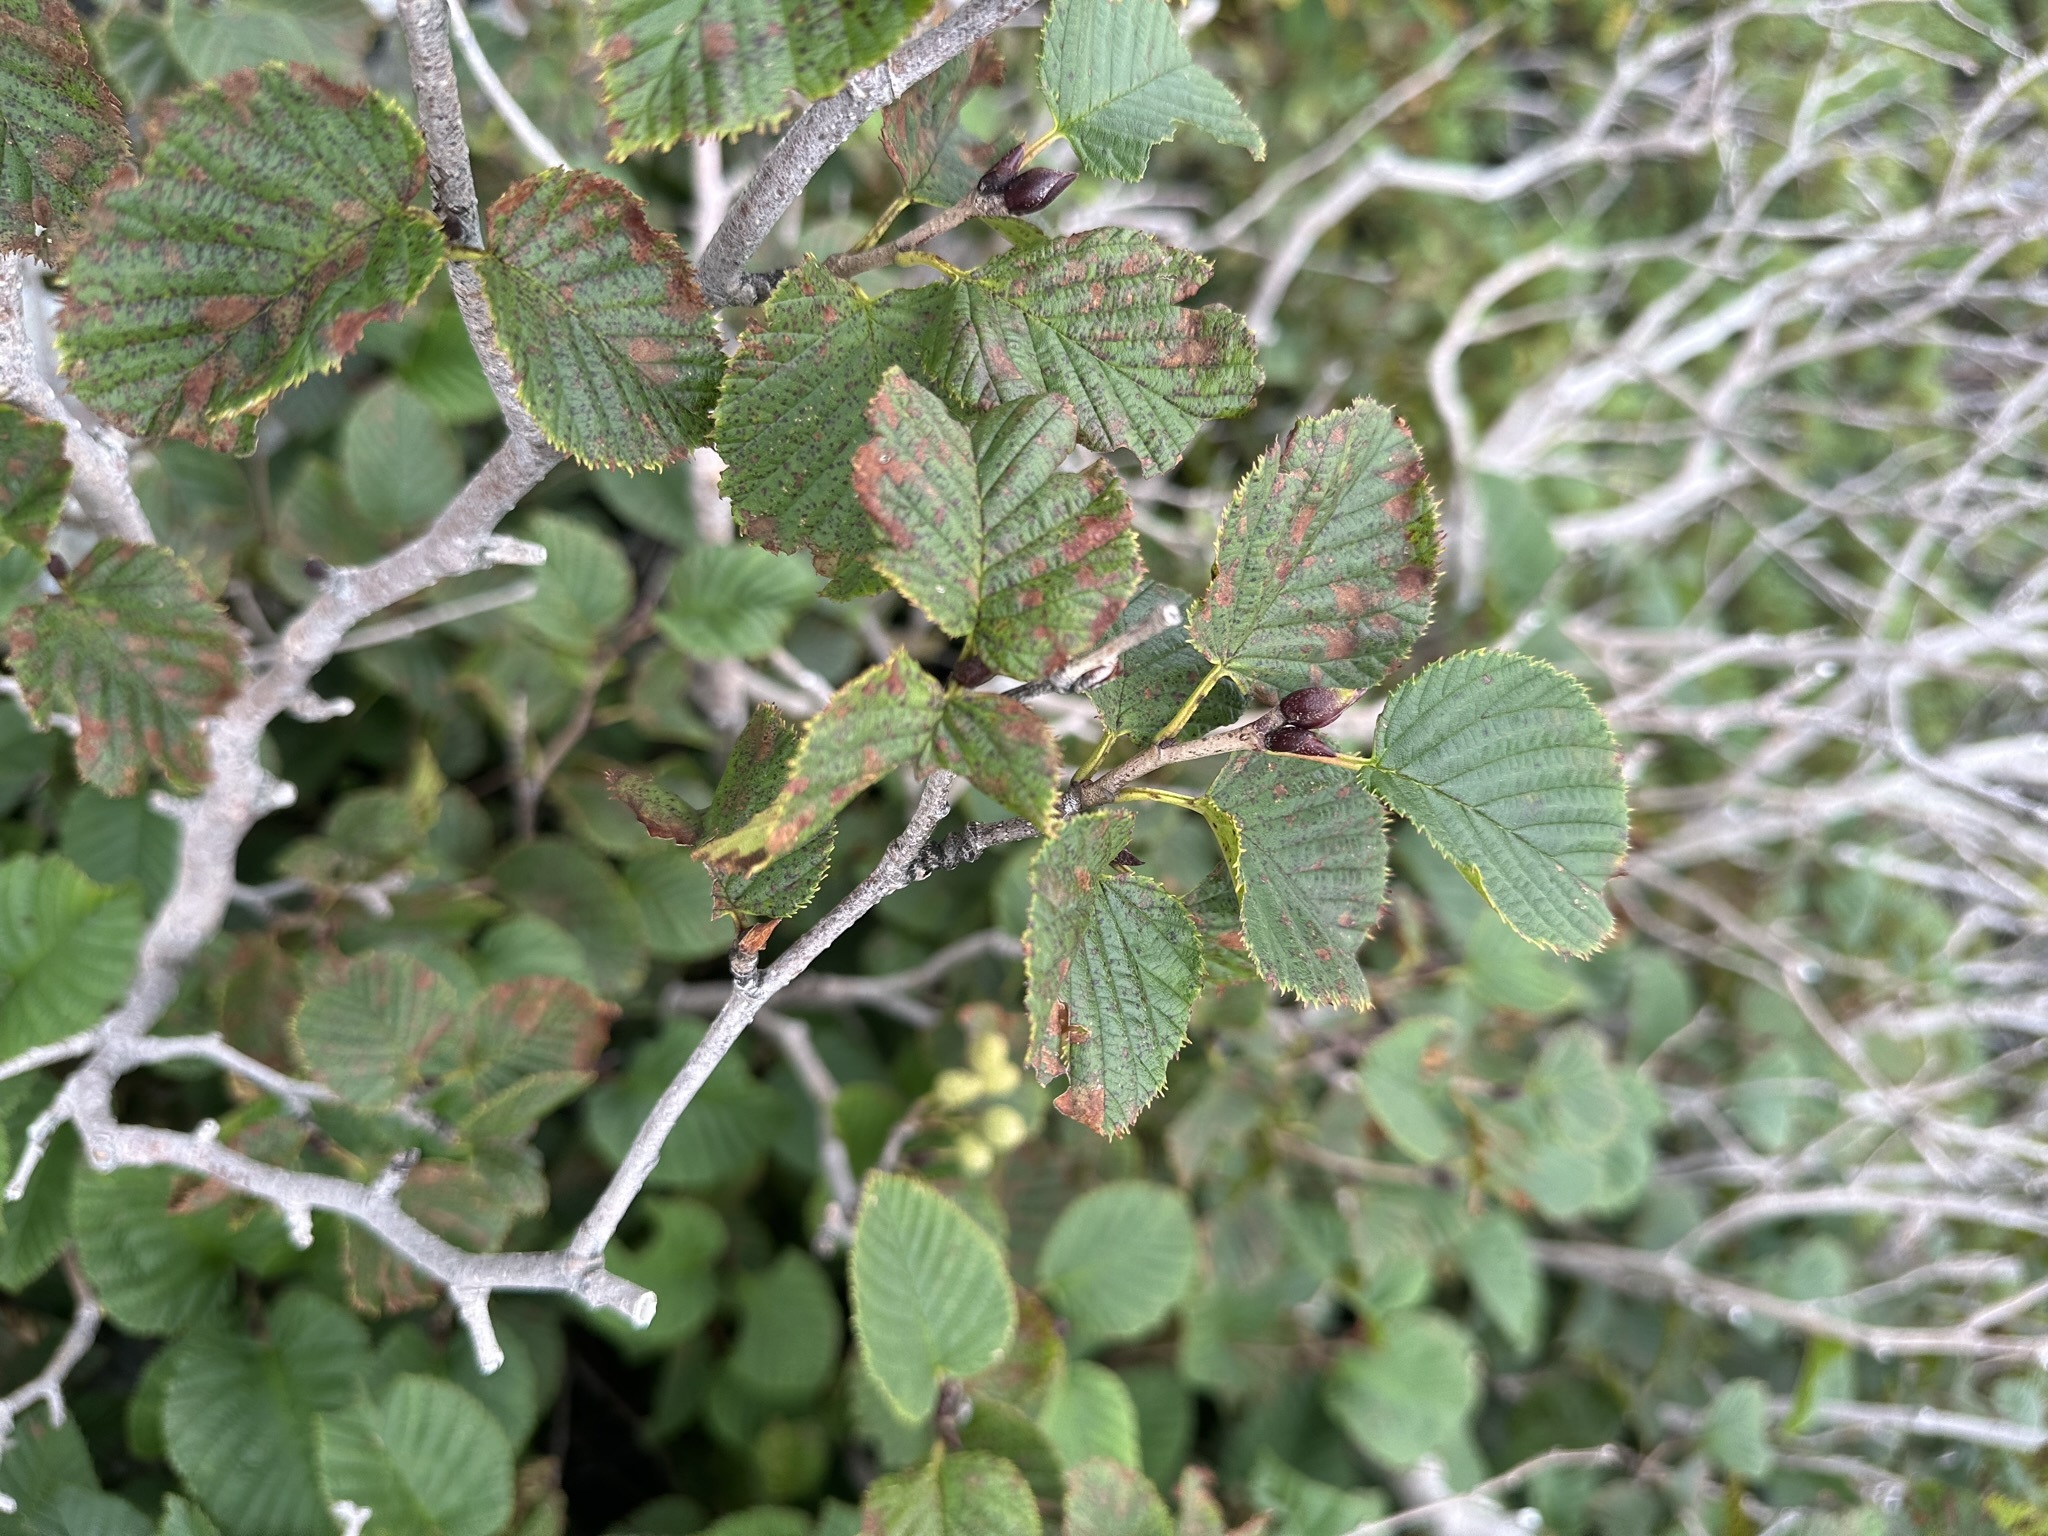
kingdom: Plantae
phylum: Tracheophyta
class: Magnoliopsida
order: Fagales
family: Betulaceae
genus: Alnus
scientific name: Alnus maximowiczii
